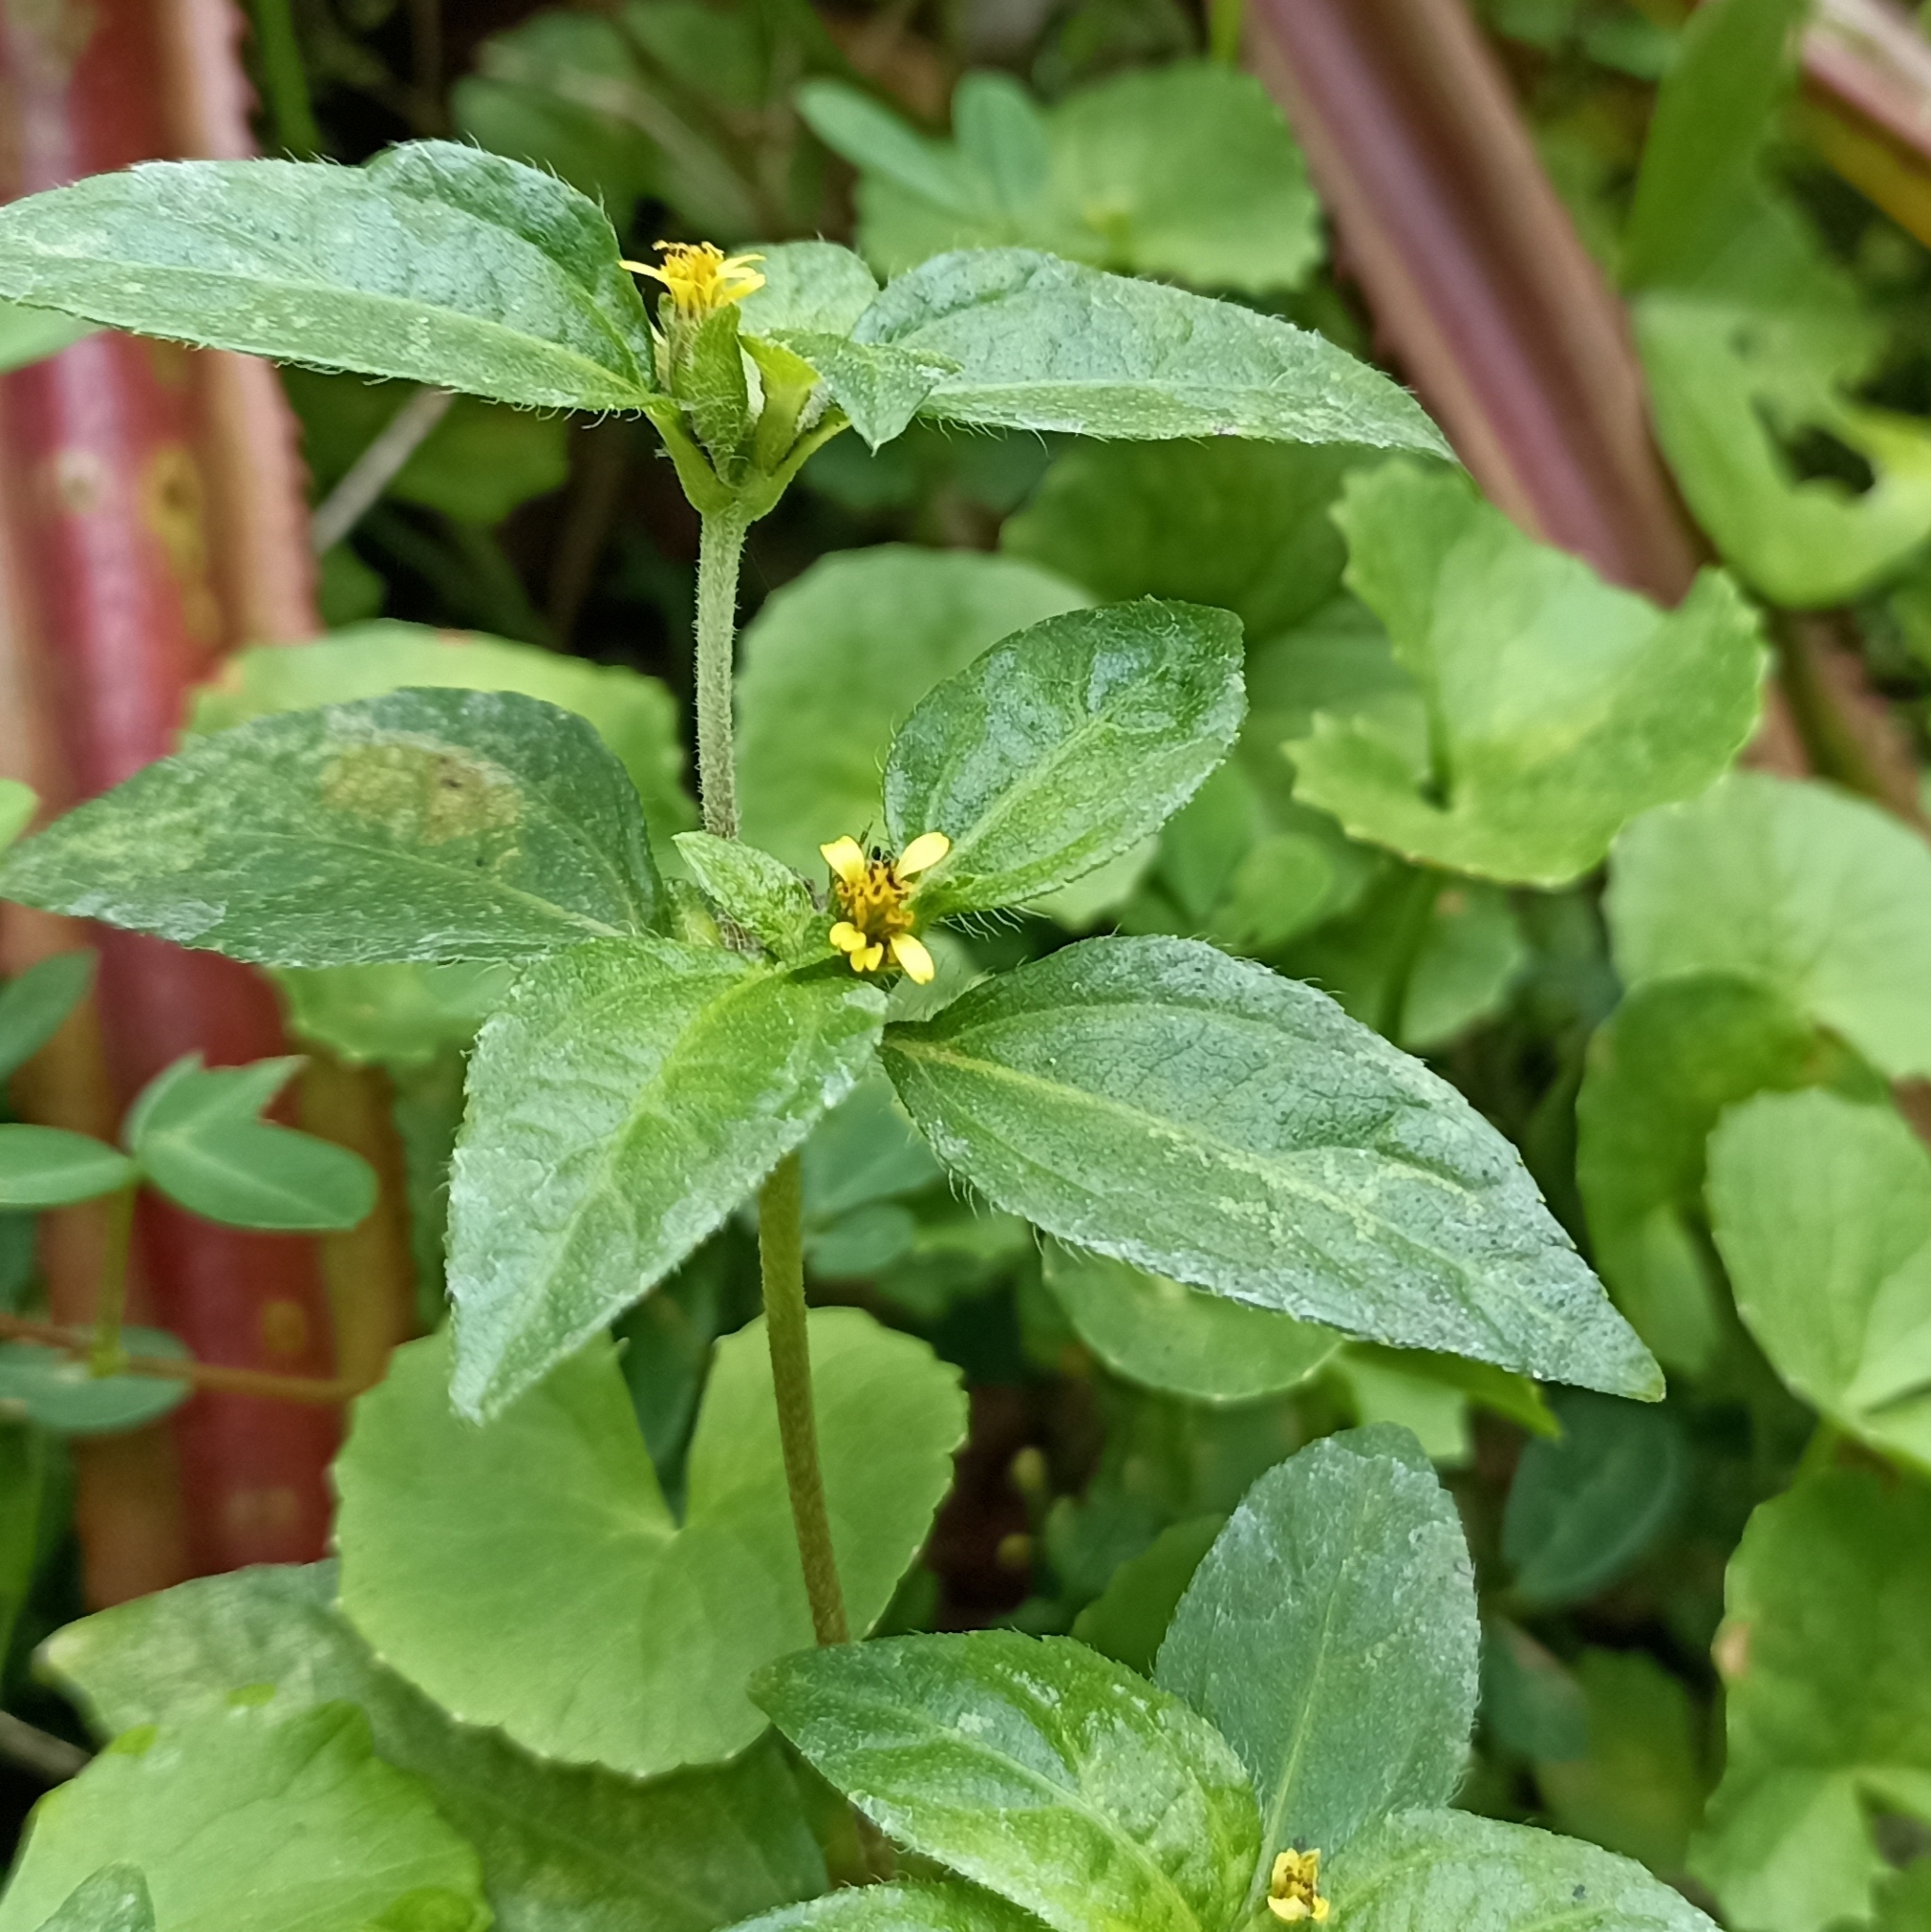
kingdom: Plantae
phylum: Tracheophyta
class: Magnoliopsida
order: Asterales
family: Asteraceae
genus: Synedrella
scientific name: Synedrella nodiflora
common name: Nodeweed
